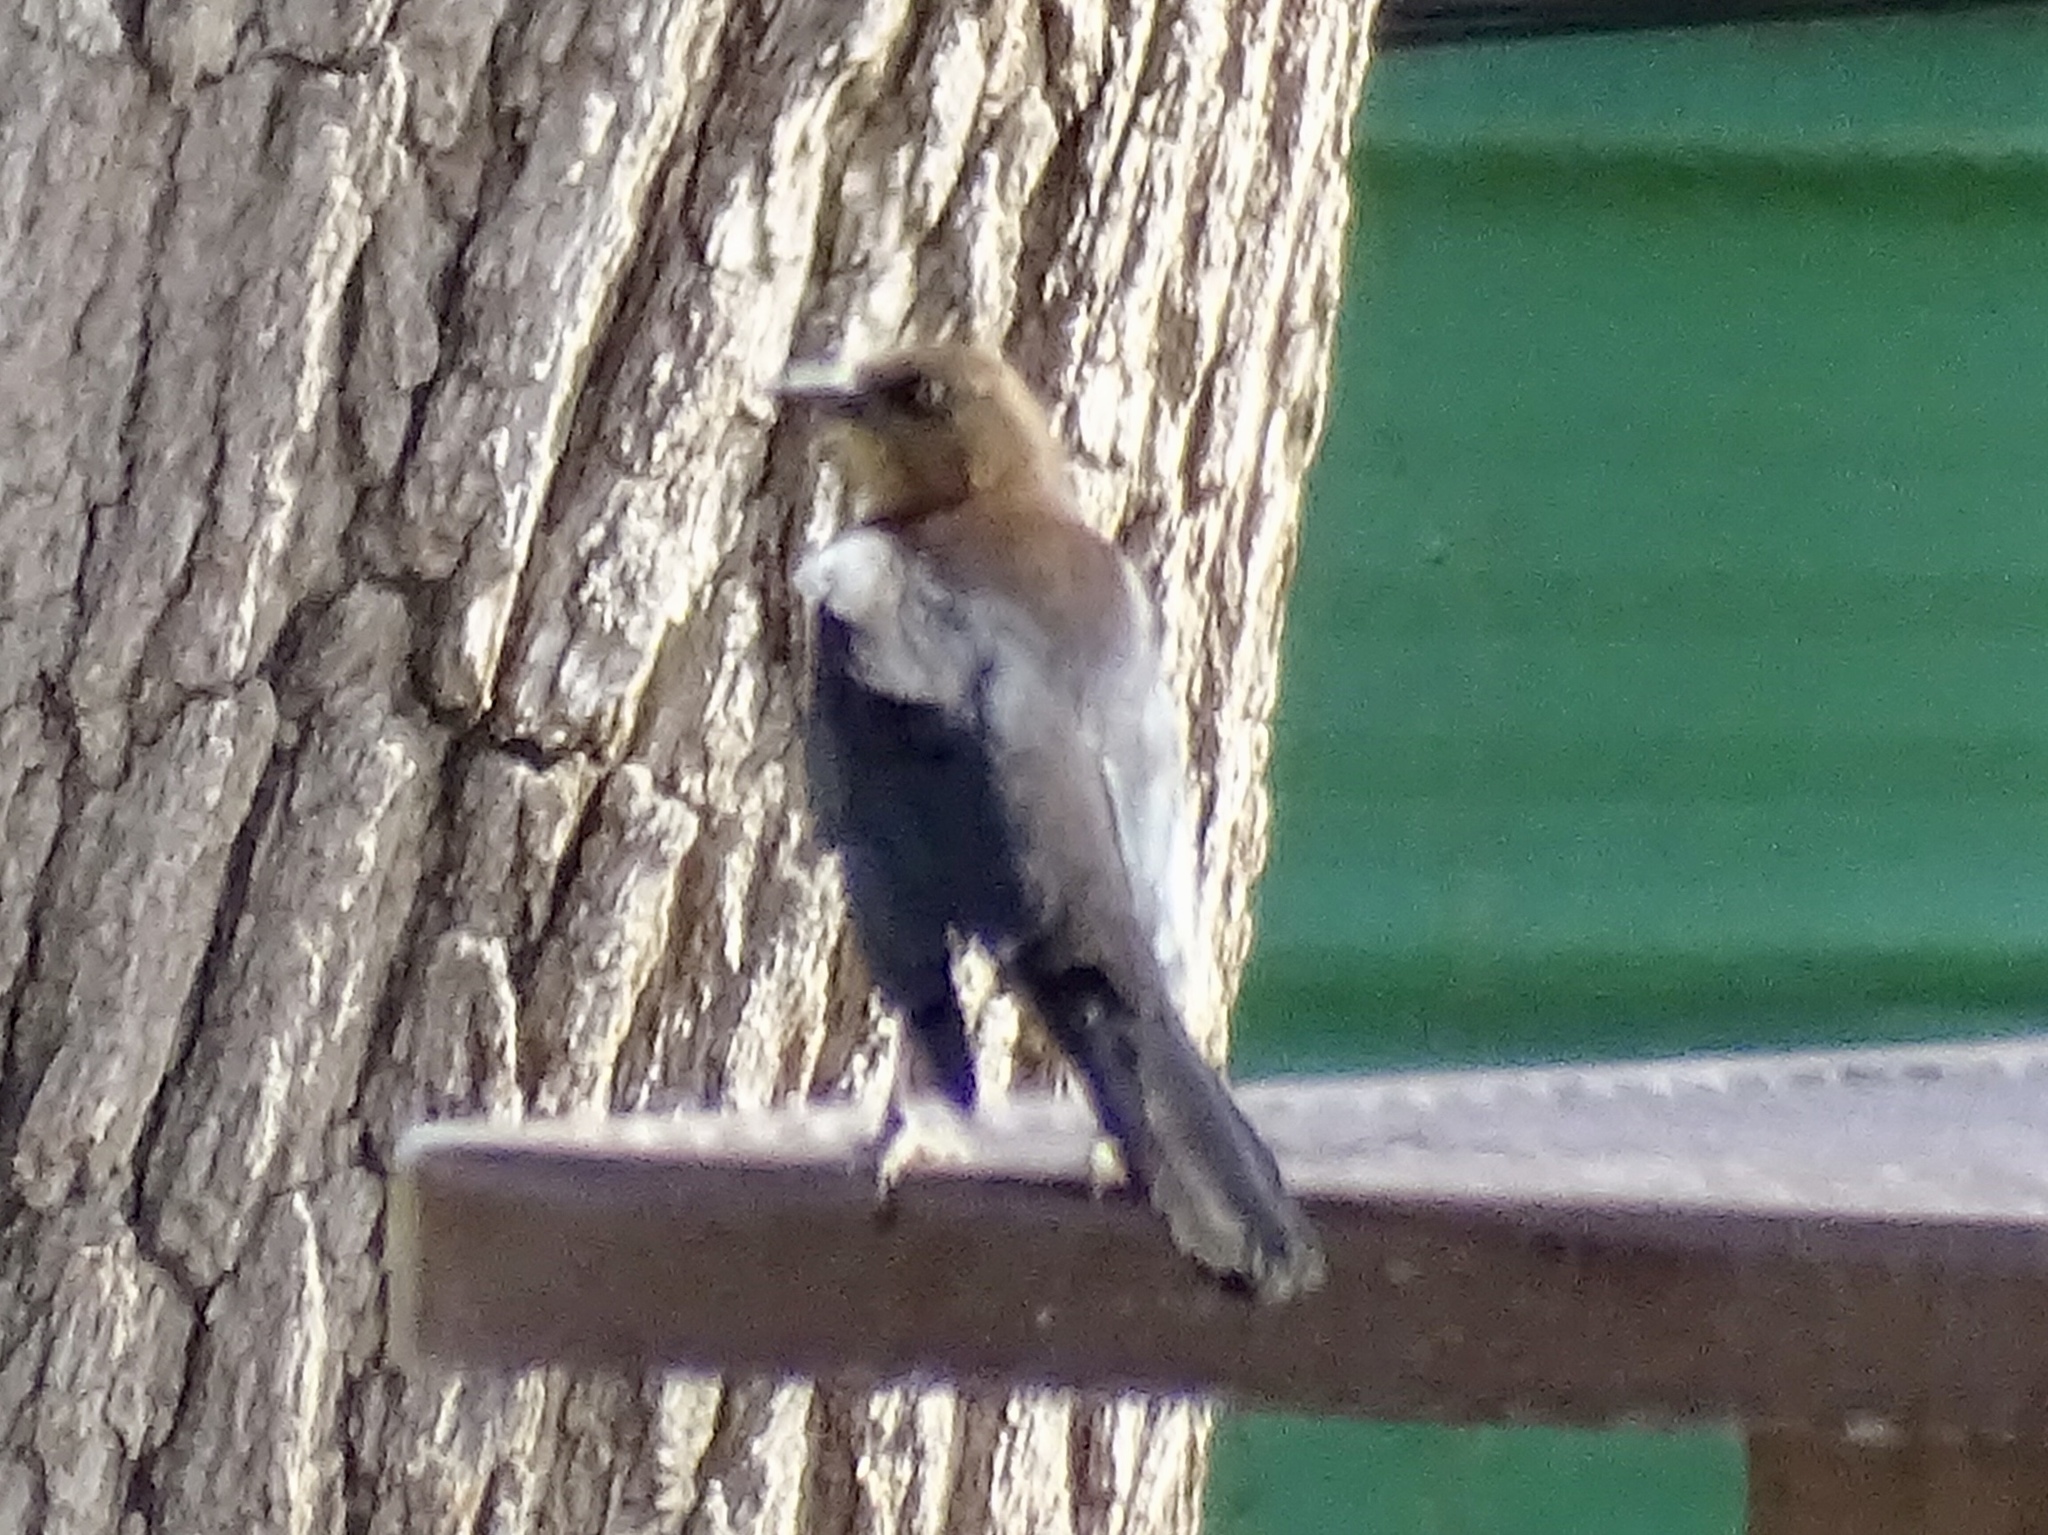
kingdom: Animalia
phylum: Chordata
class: Aves
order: Passeriformes
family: Icteridae
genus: Quiscalus
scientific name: Quiscalus mexicanus
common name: Great-tailed grackle
